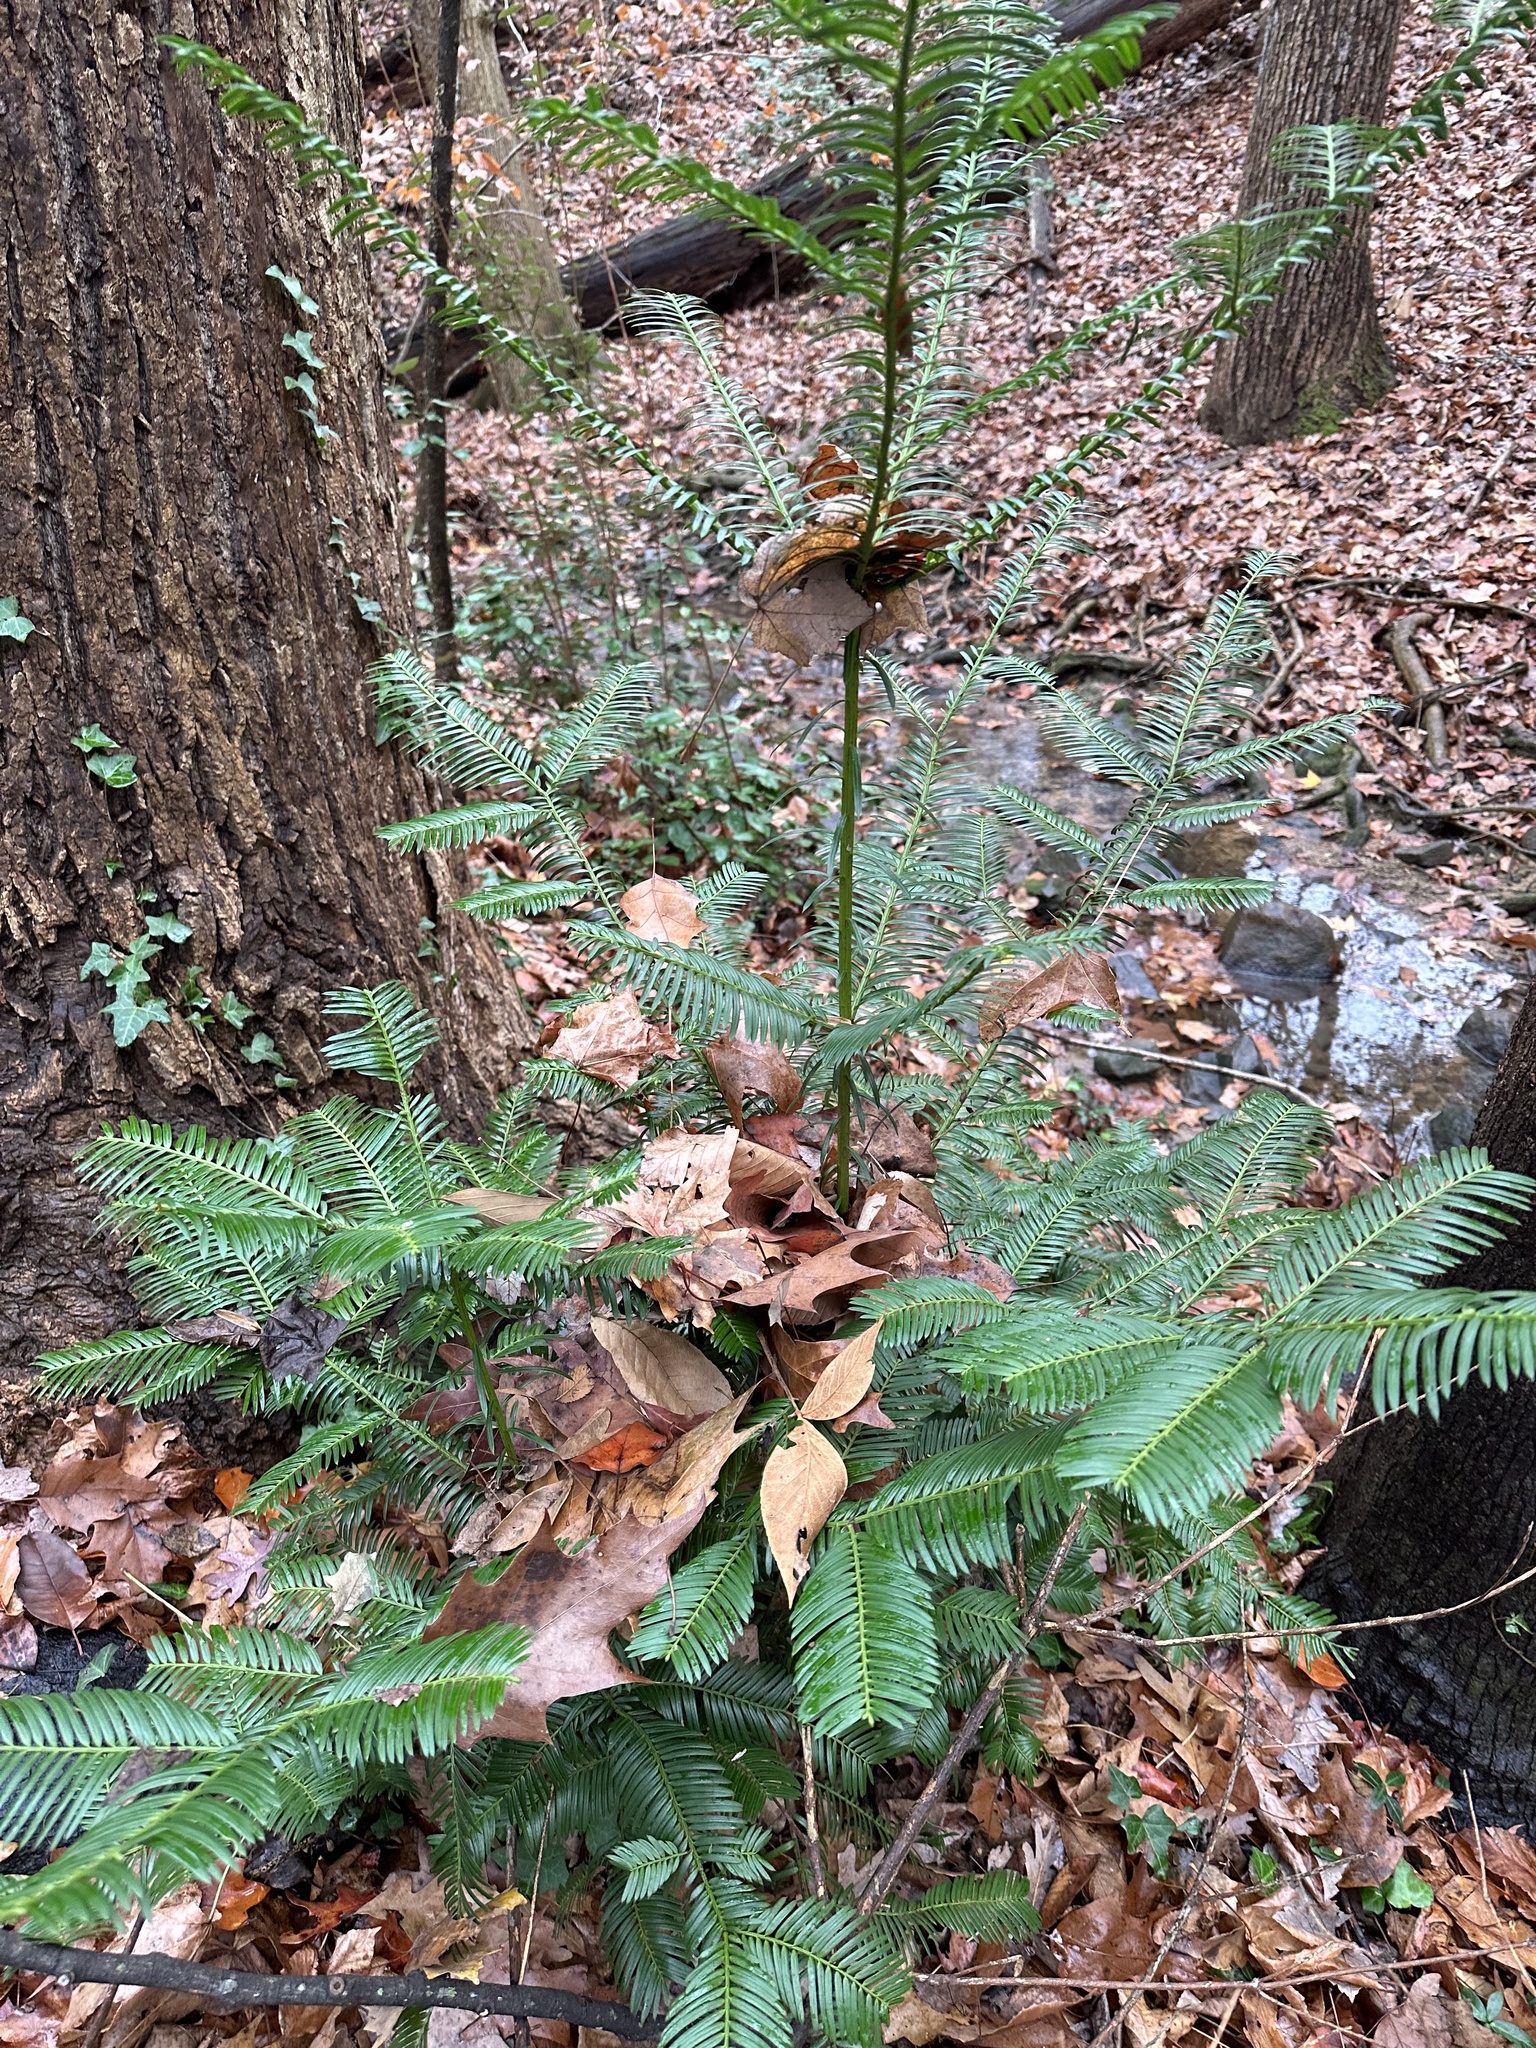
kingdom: Plantae
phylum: Tracheophyta
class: Pinopsida
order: Pinales
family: Cephalotaxaceae
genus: Cephalotaxus
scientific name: Cephalotaxus harringtonia
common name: Japanese plum-yew
